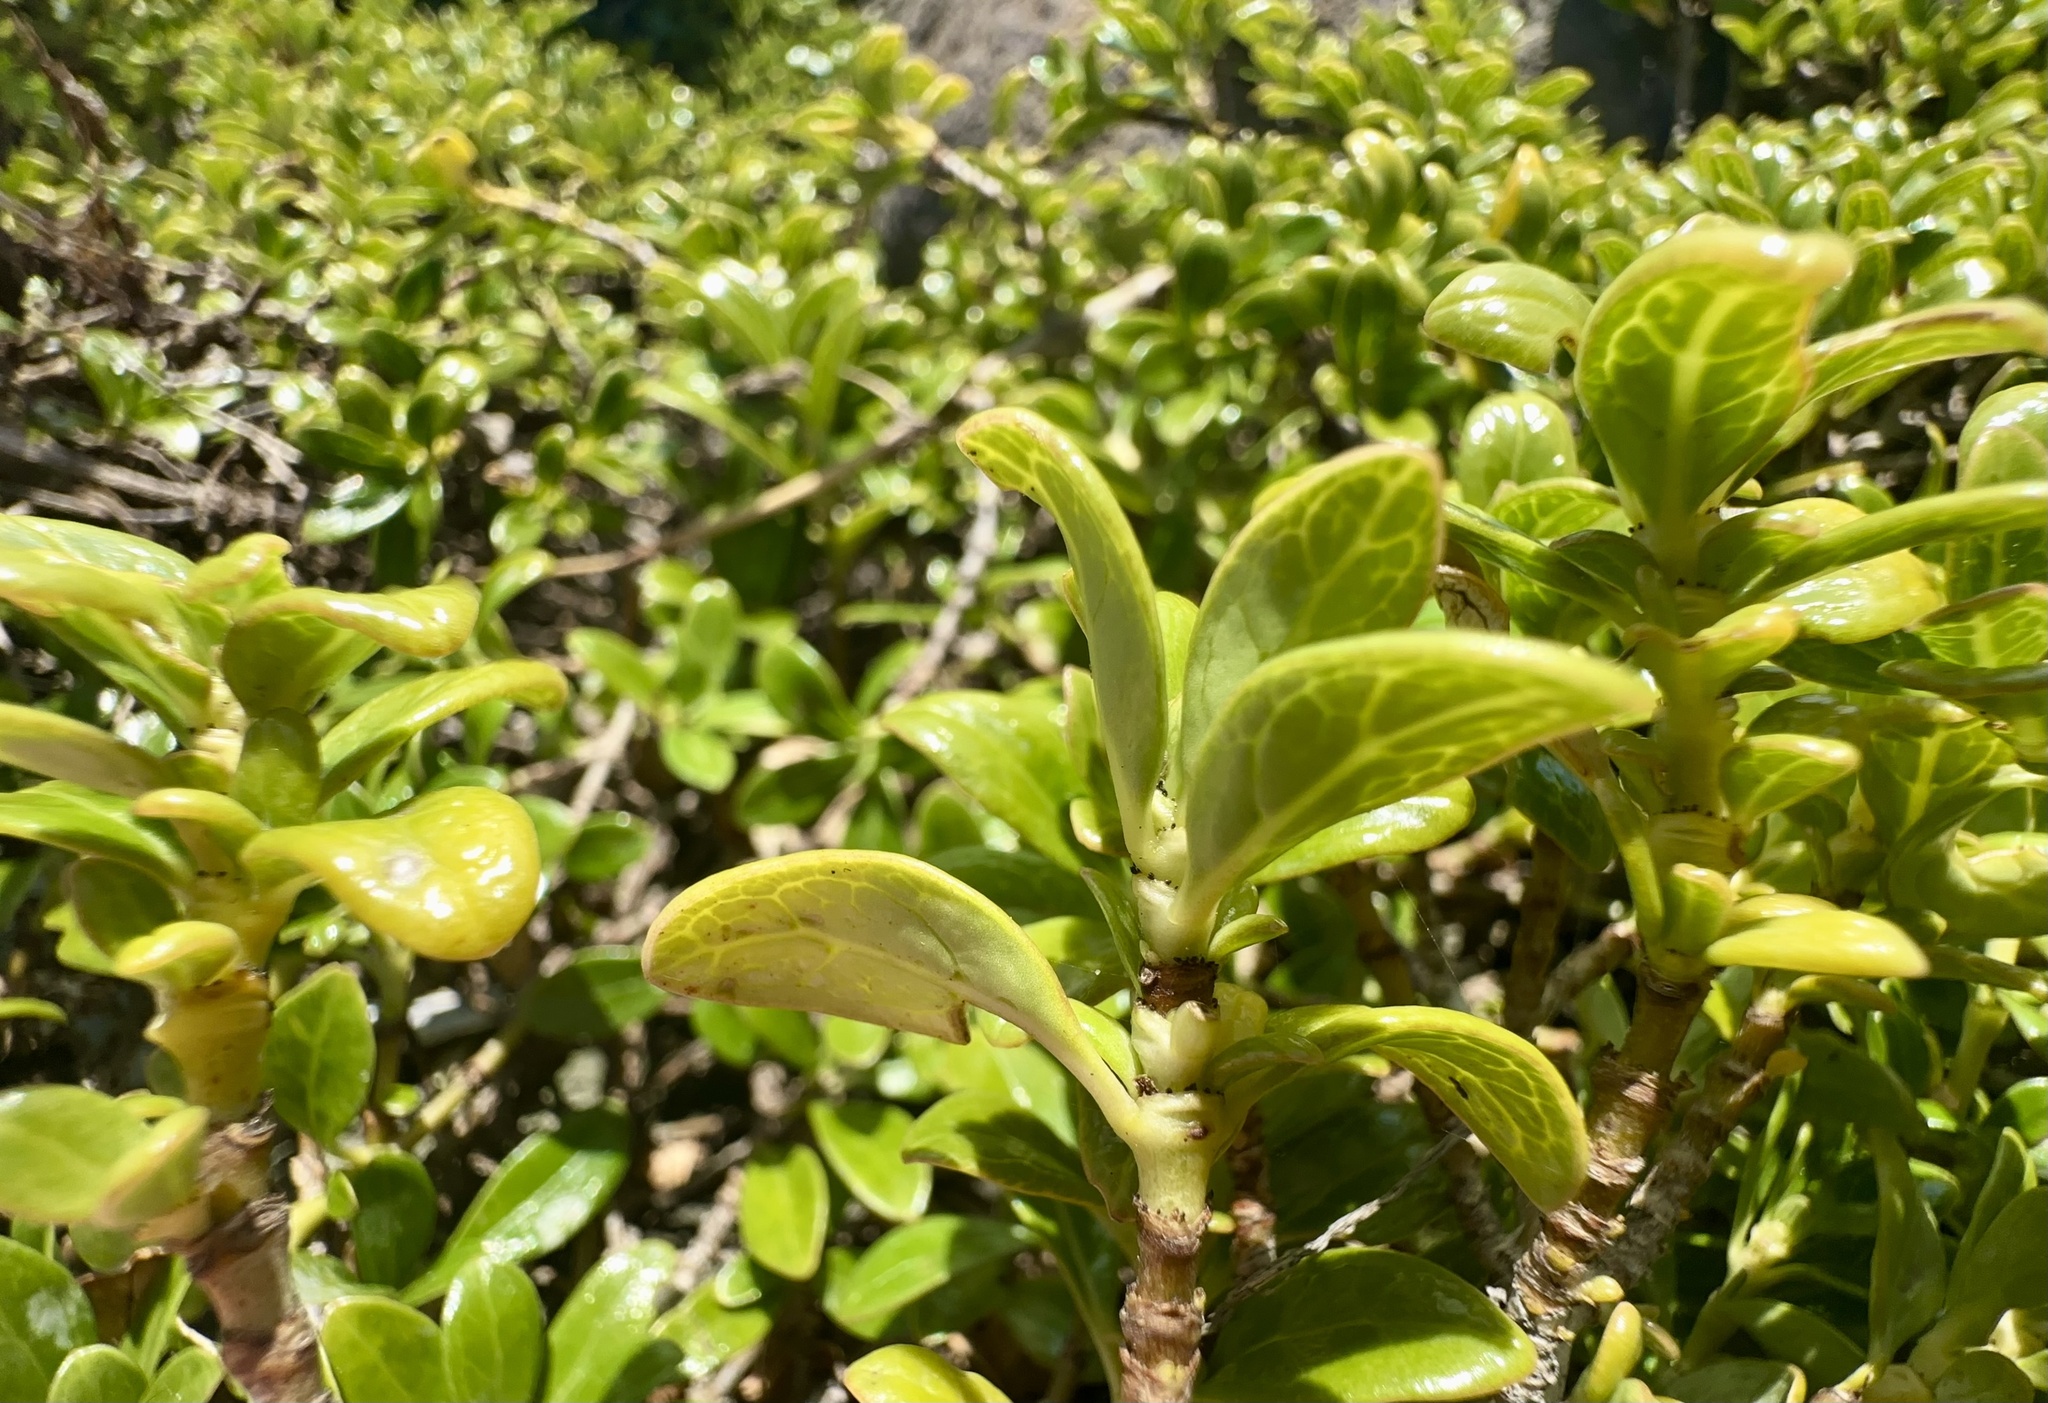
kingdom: Plantae
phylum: Tracheophyta
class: Magnoliopsida
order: Gentianales
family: Rubiaceae
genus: Coprosma
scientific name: Coprosma repens
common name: Tree bedstraw
